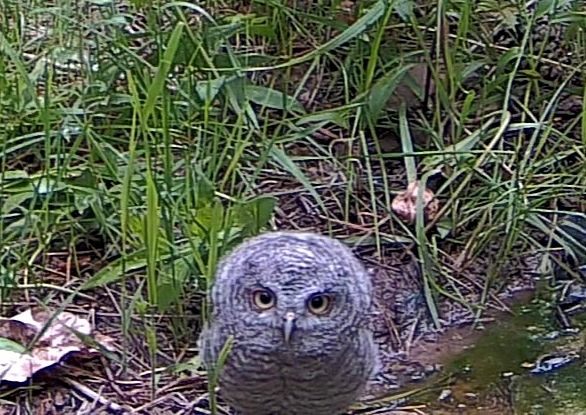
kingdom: Animalia
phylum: Chordata
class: Aves
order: Strigiformes
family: Strigidae
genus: Megascops
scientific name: Megascops asio
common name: Eastern screech-owl
